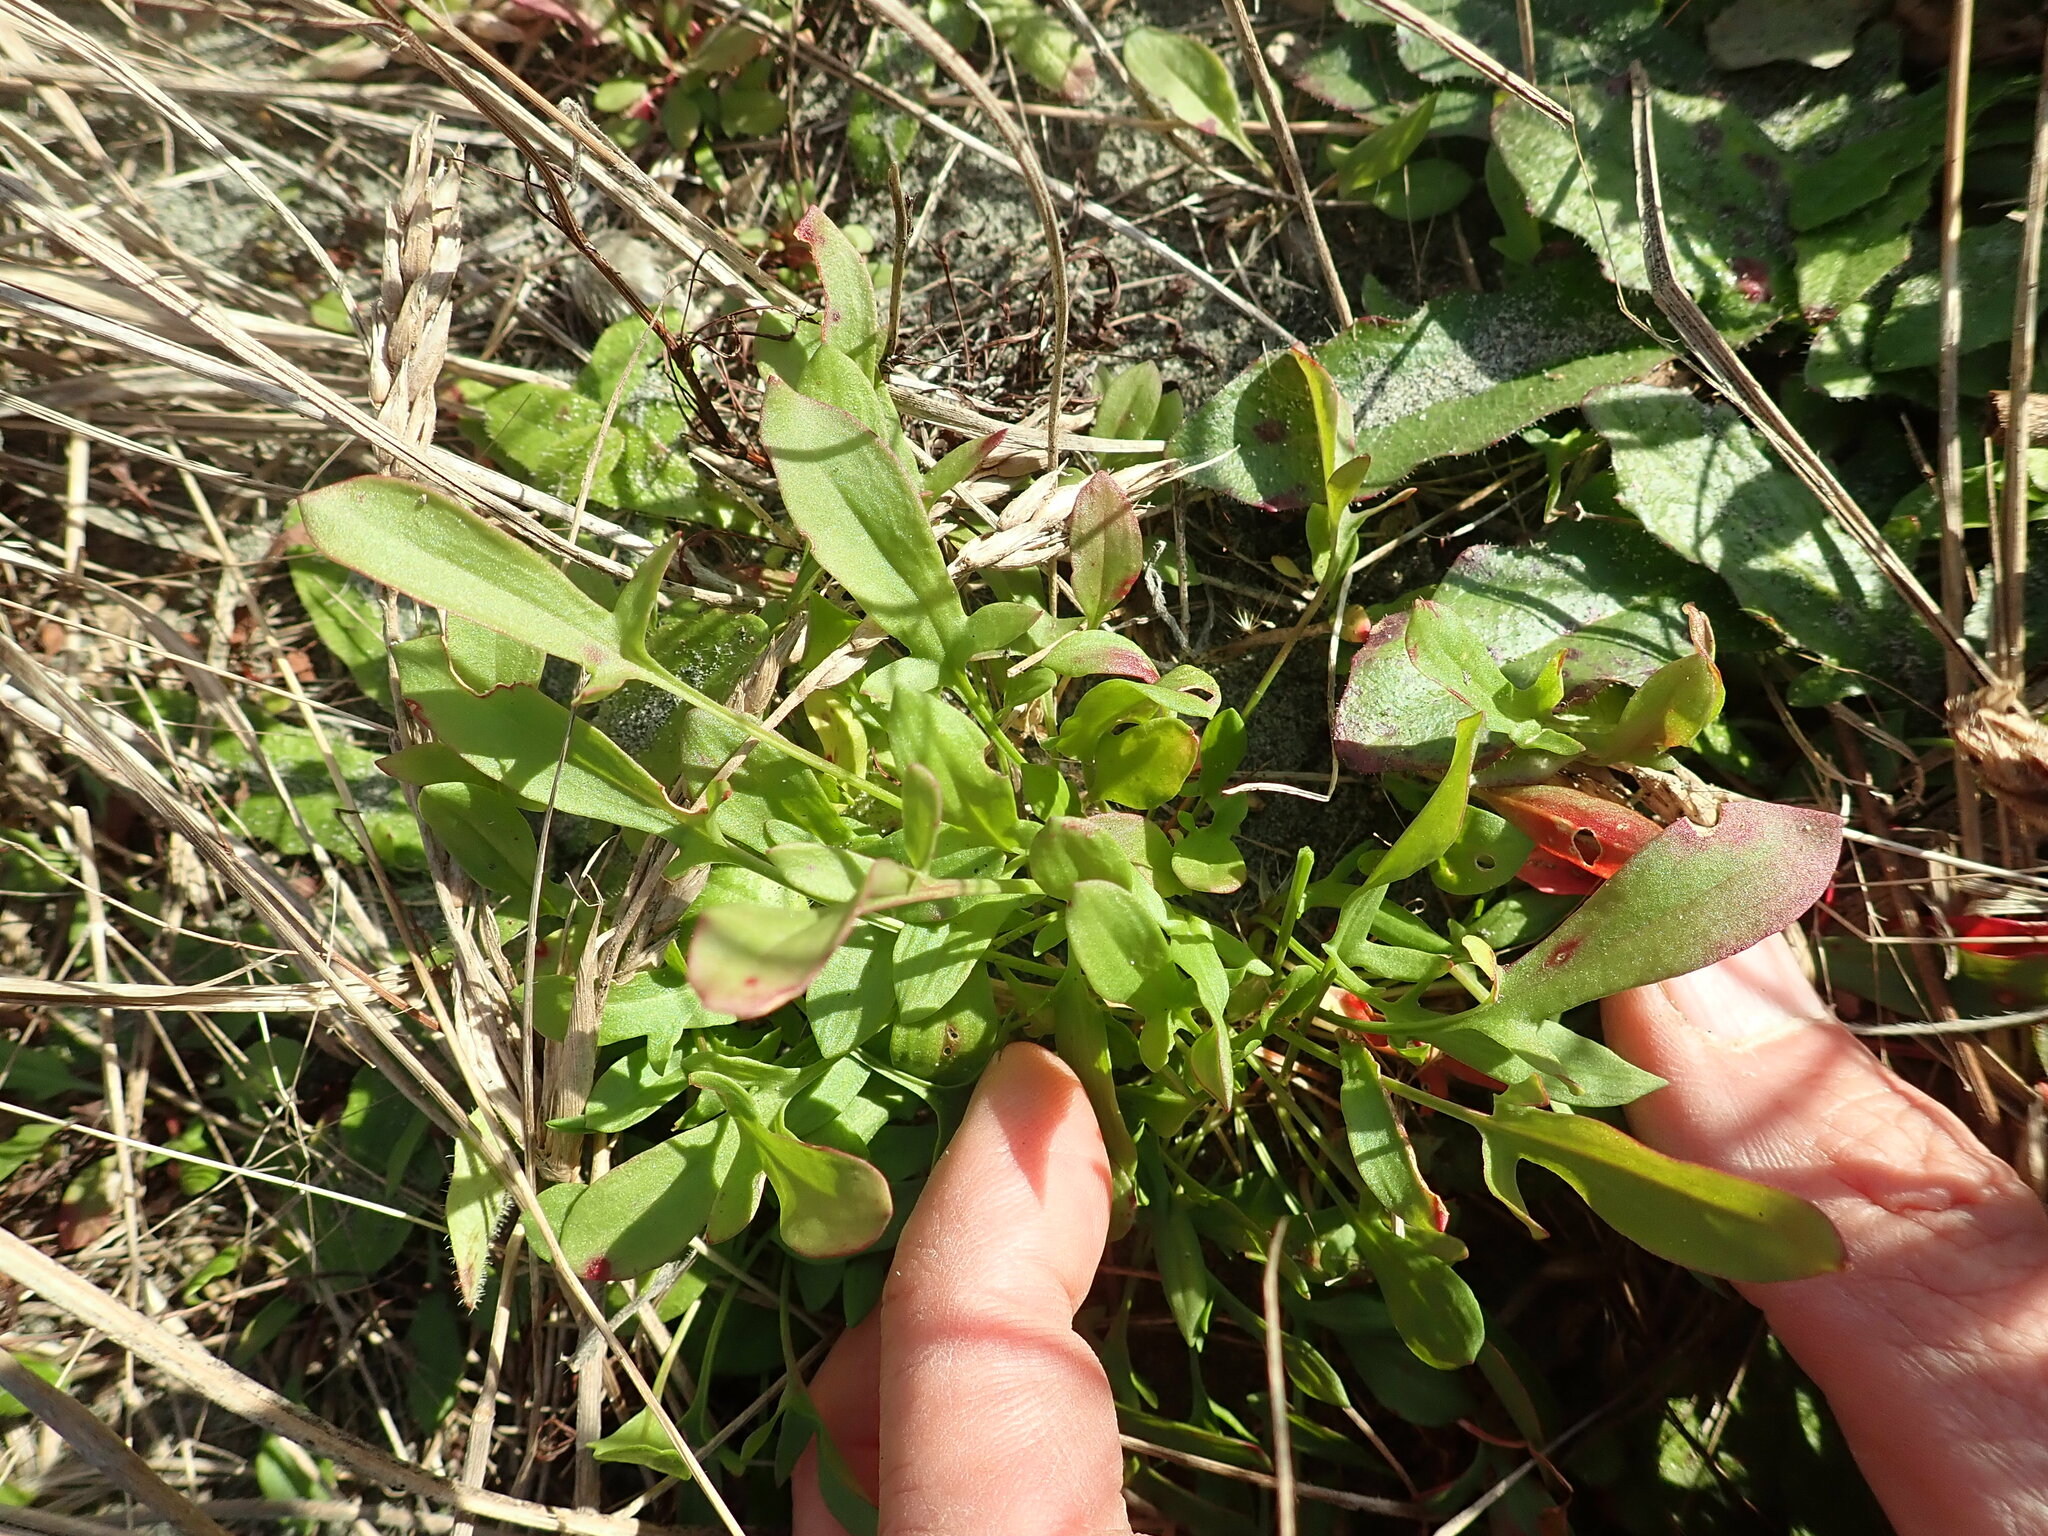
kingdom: Plantae
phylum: Tracheophyta
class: Magnoliopsida
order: Caryophyllales
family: Polygonaceae
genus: Rumex
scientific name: Rumex acetosella
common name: Common sheep sorrel
